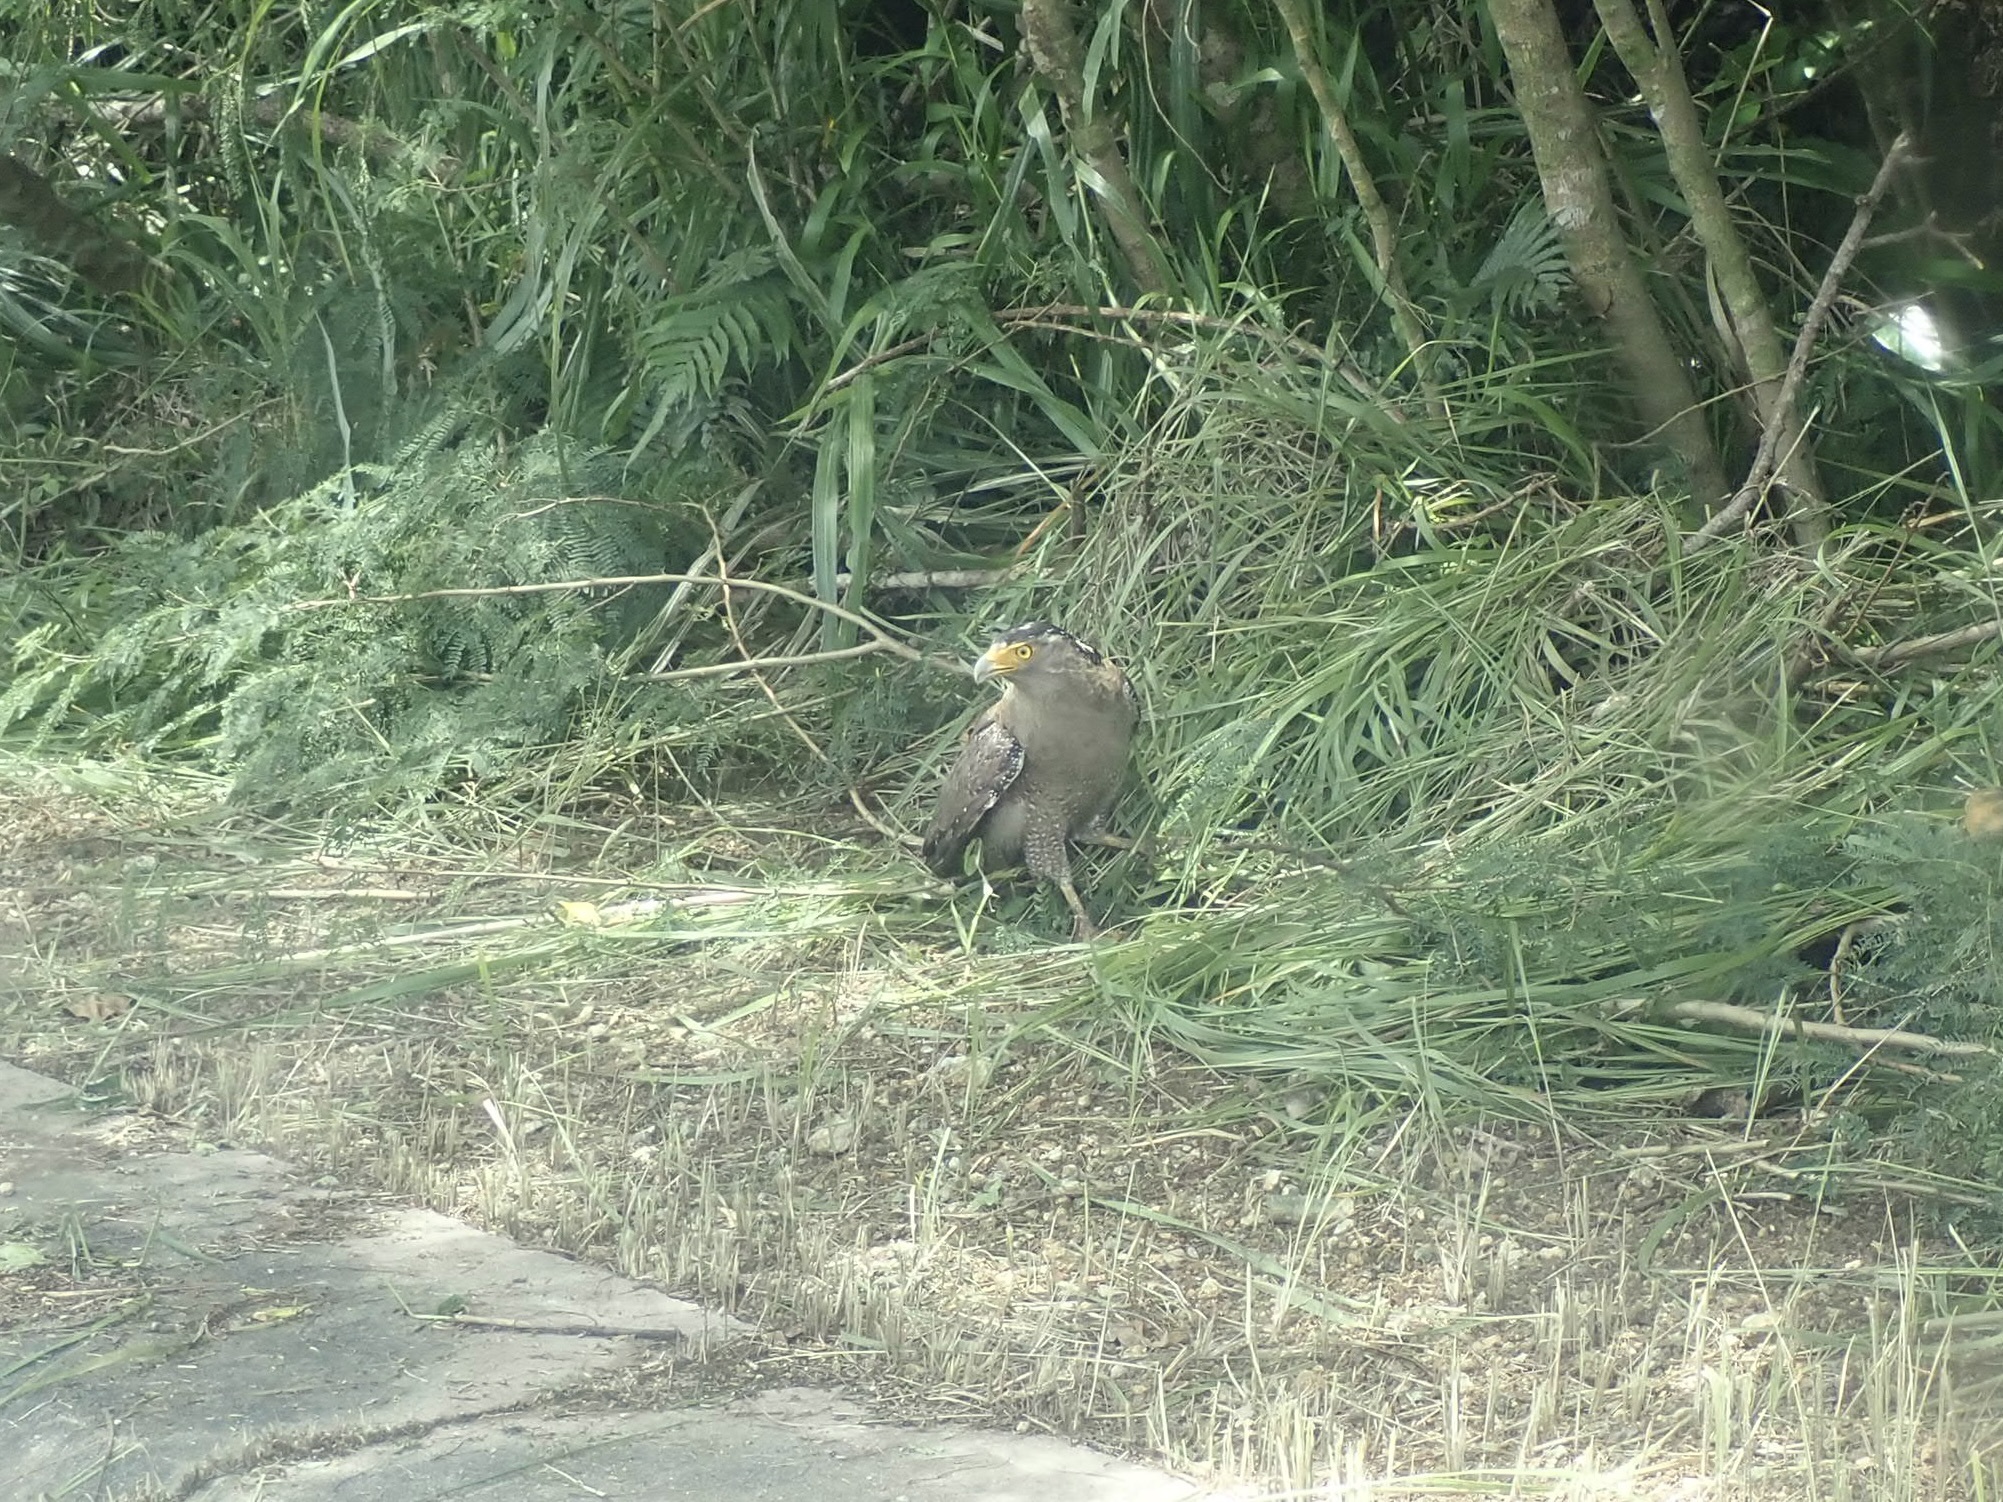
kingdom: Animalia
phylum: Chordata
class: Aves
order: Accipitriformes
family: Accipitridae
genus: Spilornis
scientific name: Spilornis cheela
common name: Crested serpent eagle
